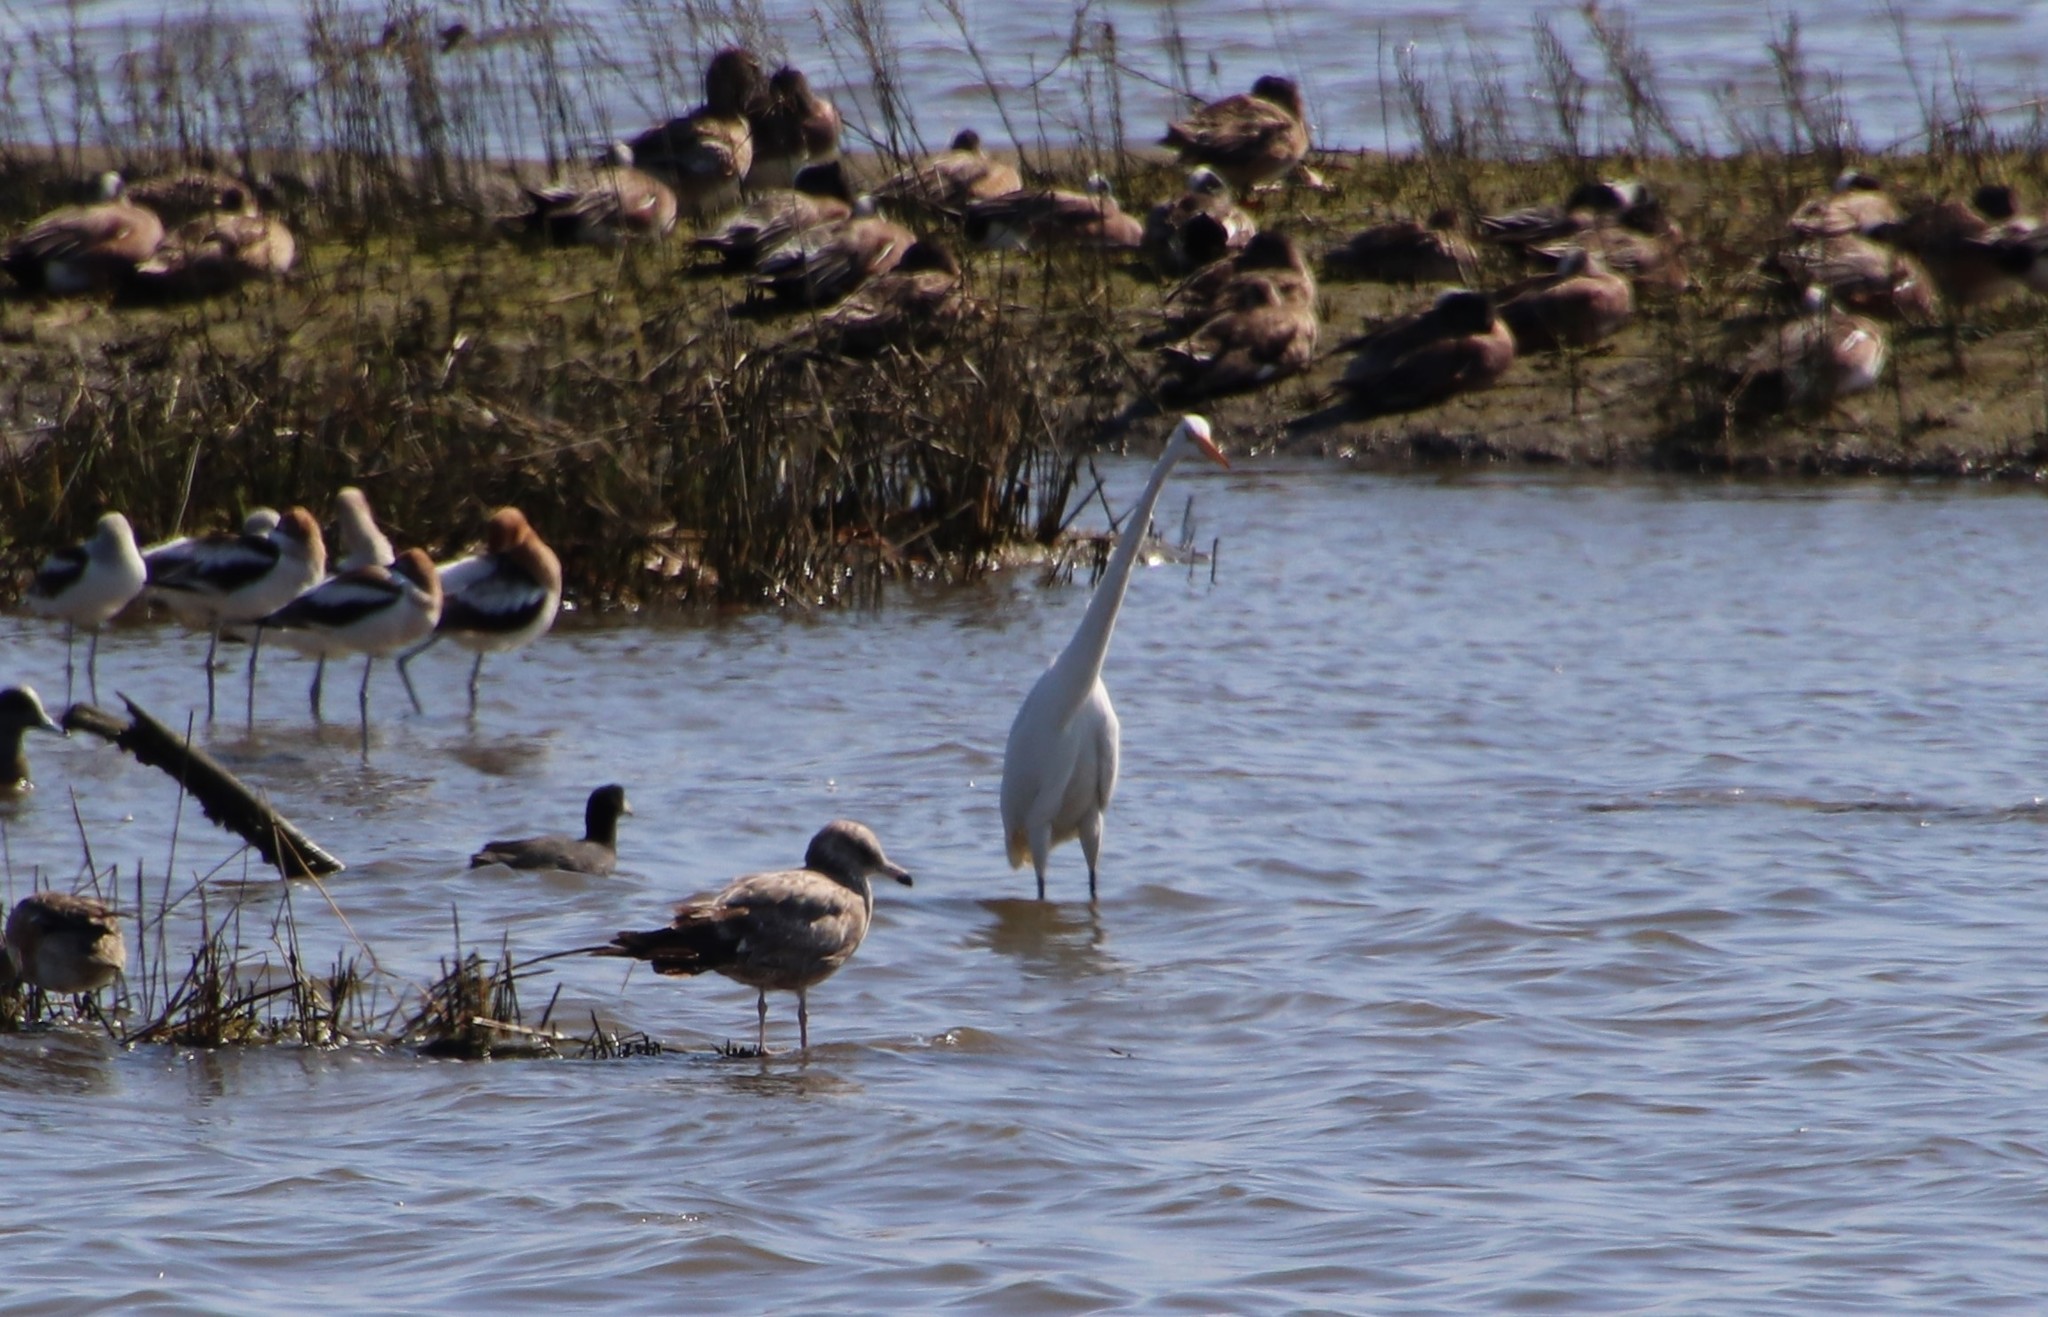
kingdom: Animalia
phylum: Chordata
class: Aves
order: Pelecaniformes
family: Ardeidae
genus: Ardea
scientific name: Ardea alba
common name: Great egret
